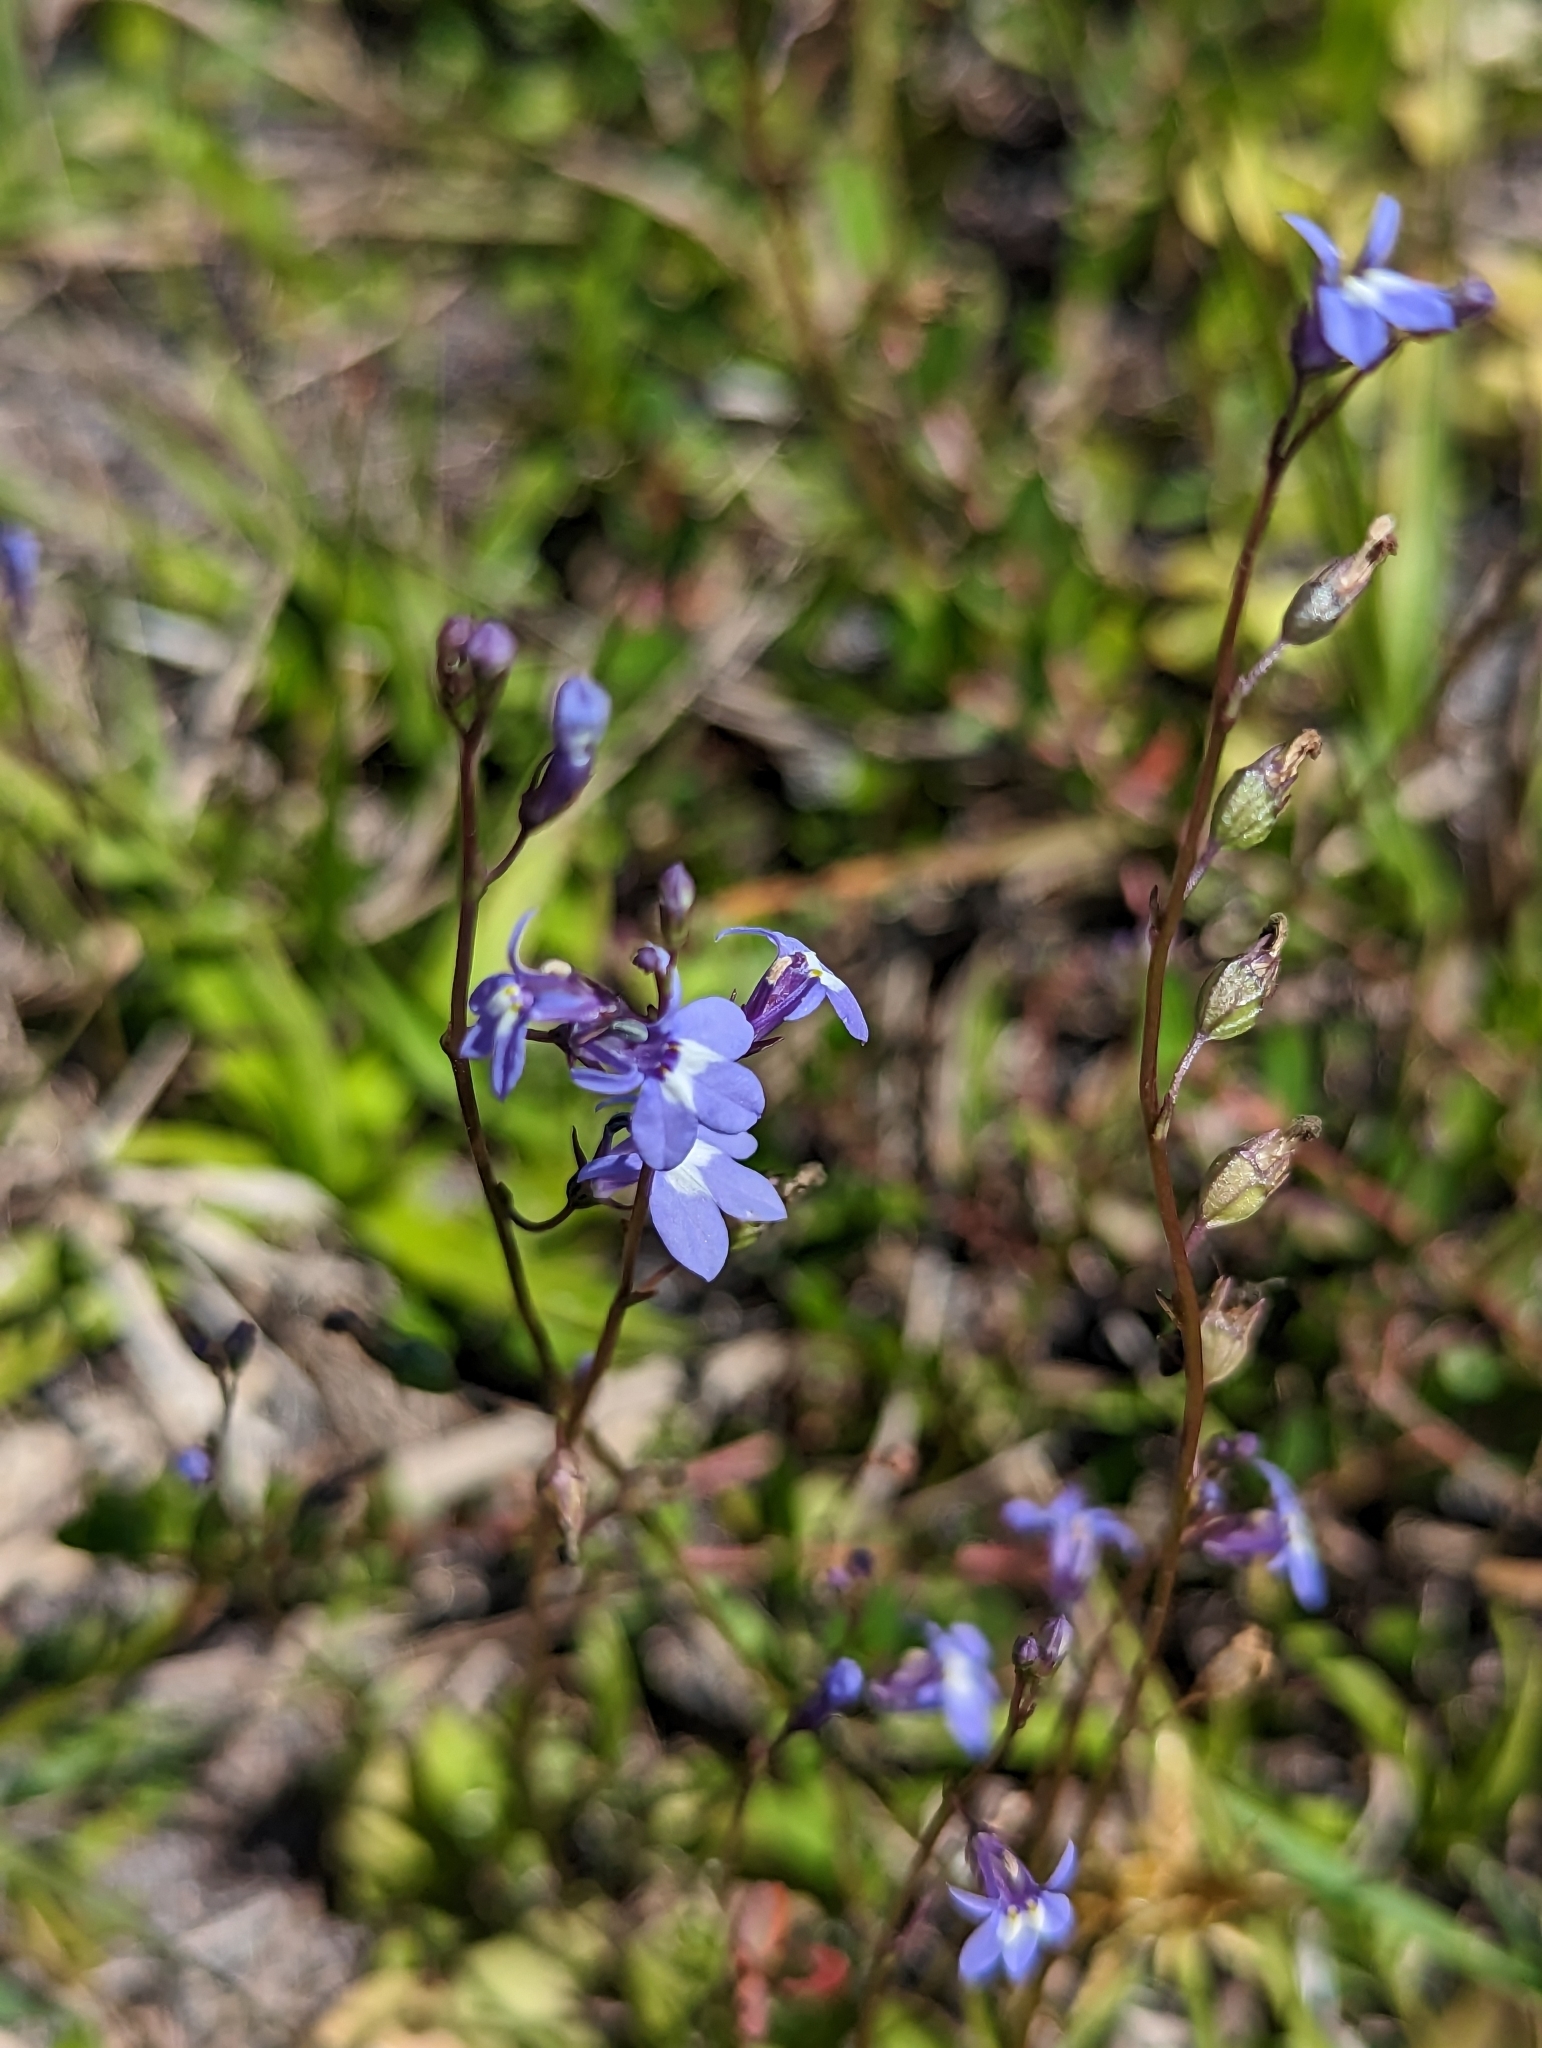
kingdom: Plantae
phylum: Tracheophyta
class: Magnoliopsida
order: Asterales
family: Campanulaceae
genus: Lobelia
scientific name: Lobelia feayana
